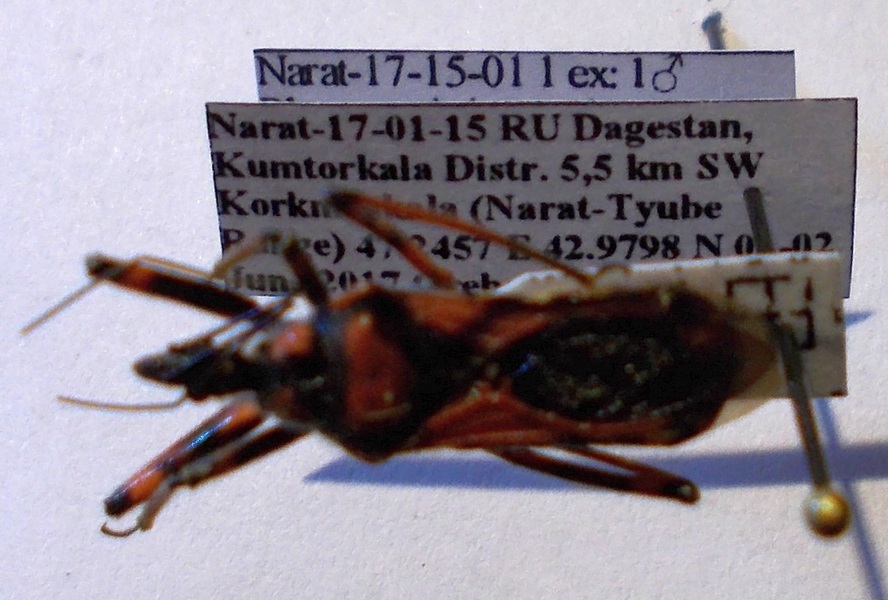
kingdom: Animalia
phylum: Arthropoda
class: Insecta
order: Hemiptera
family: Reduviidae
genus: Rhynocoris
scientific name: Rhynocoris iracundus
